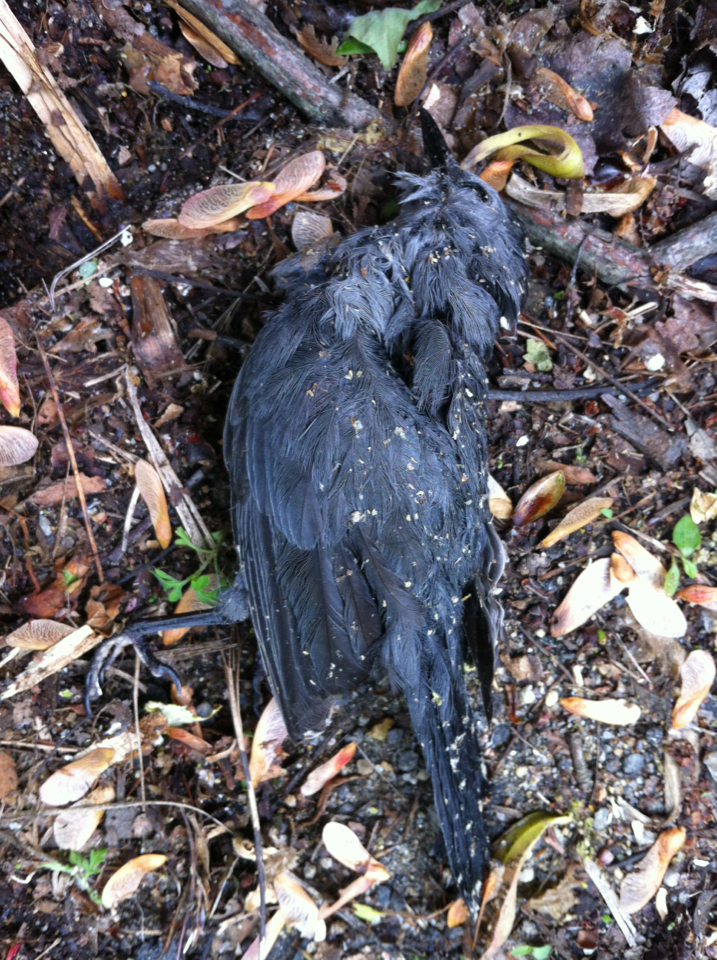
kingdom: Animalia
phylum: Chordata
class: Aves
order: Passeriformes
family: Mimidae
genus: Dumetella
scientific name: Dumetella carolinensis
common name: Gray catbird
